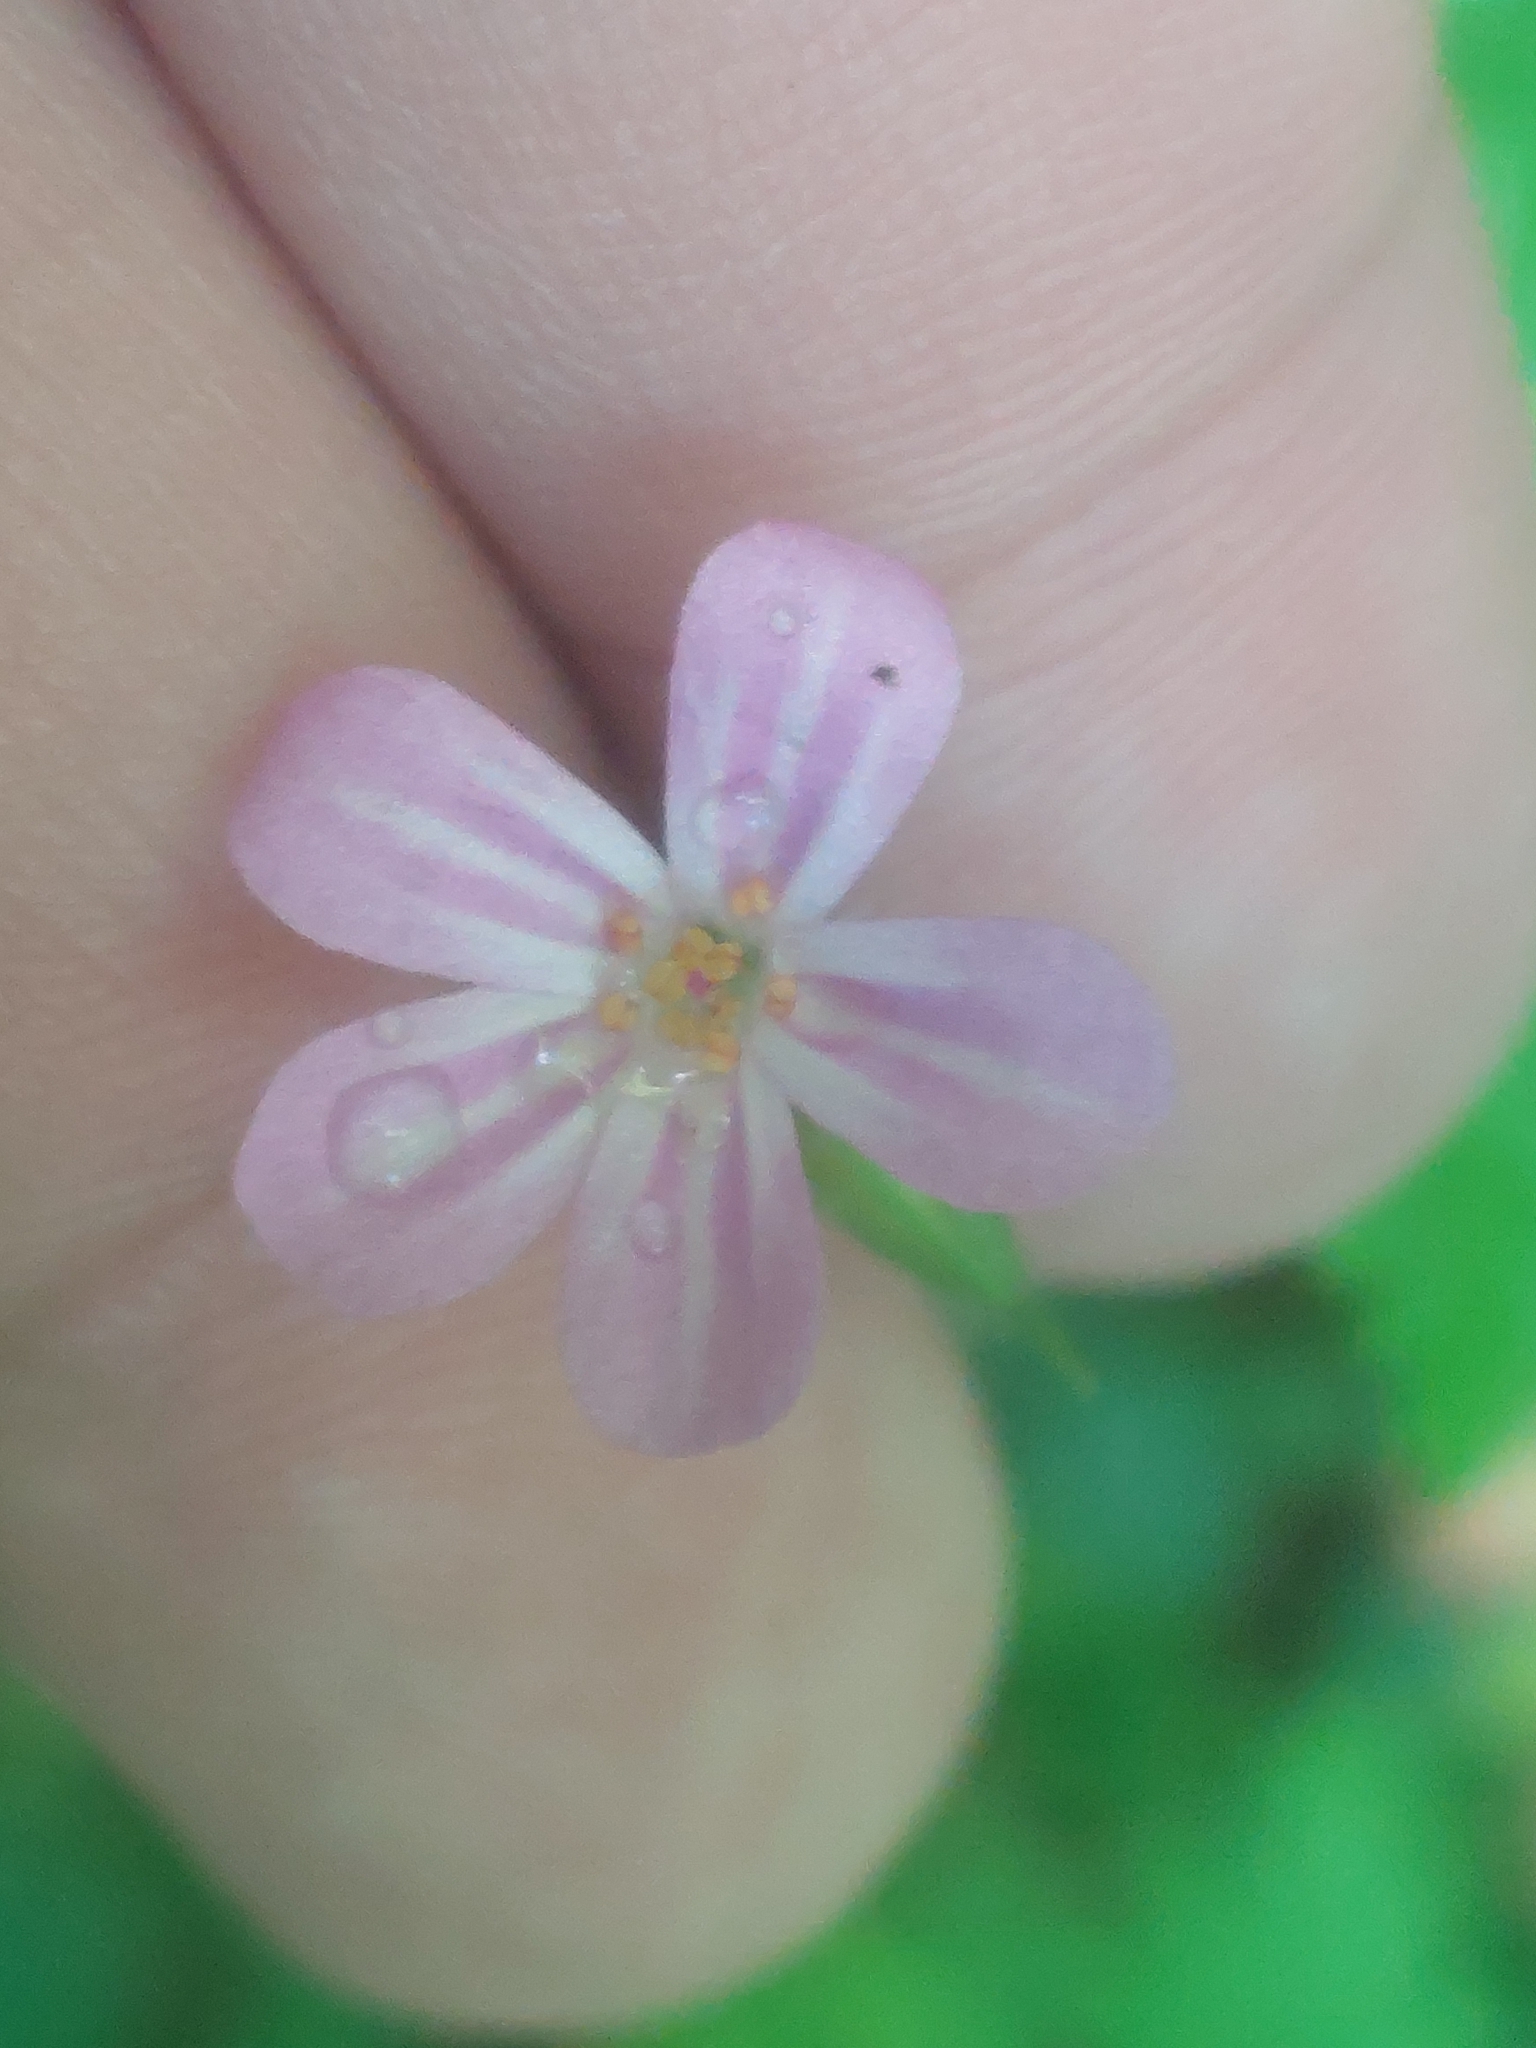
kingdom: Plantae
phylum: Tracheophyta
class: Magnoliopsida
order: Geraniales
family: Geraniaceae
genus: Geranium
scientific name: Geranium robertianum
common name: Herb-robert
